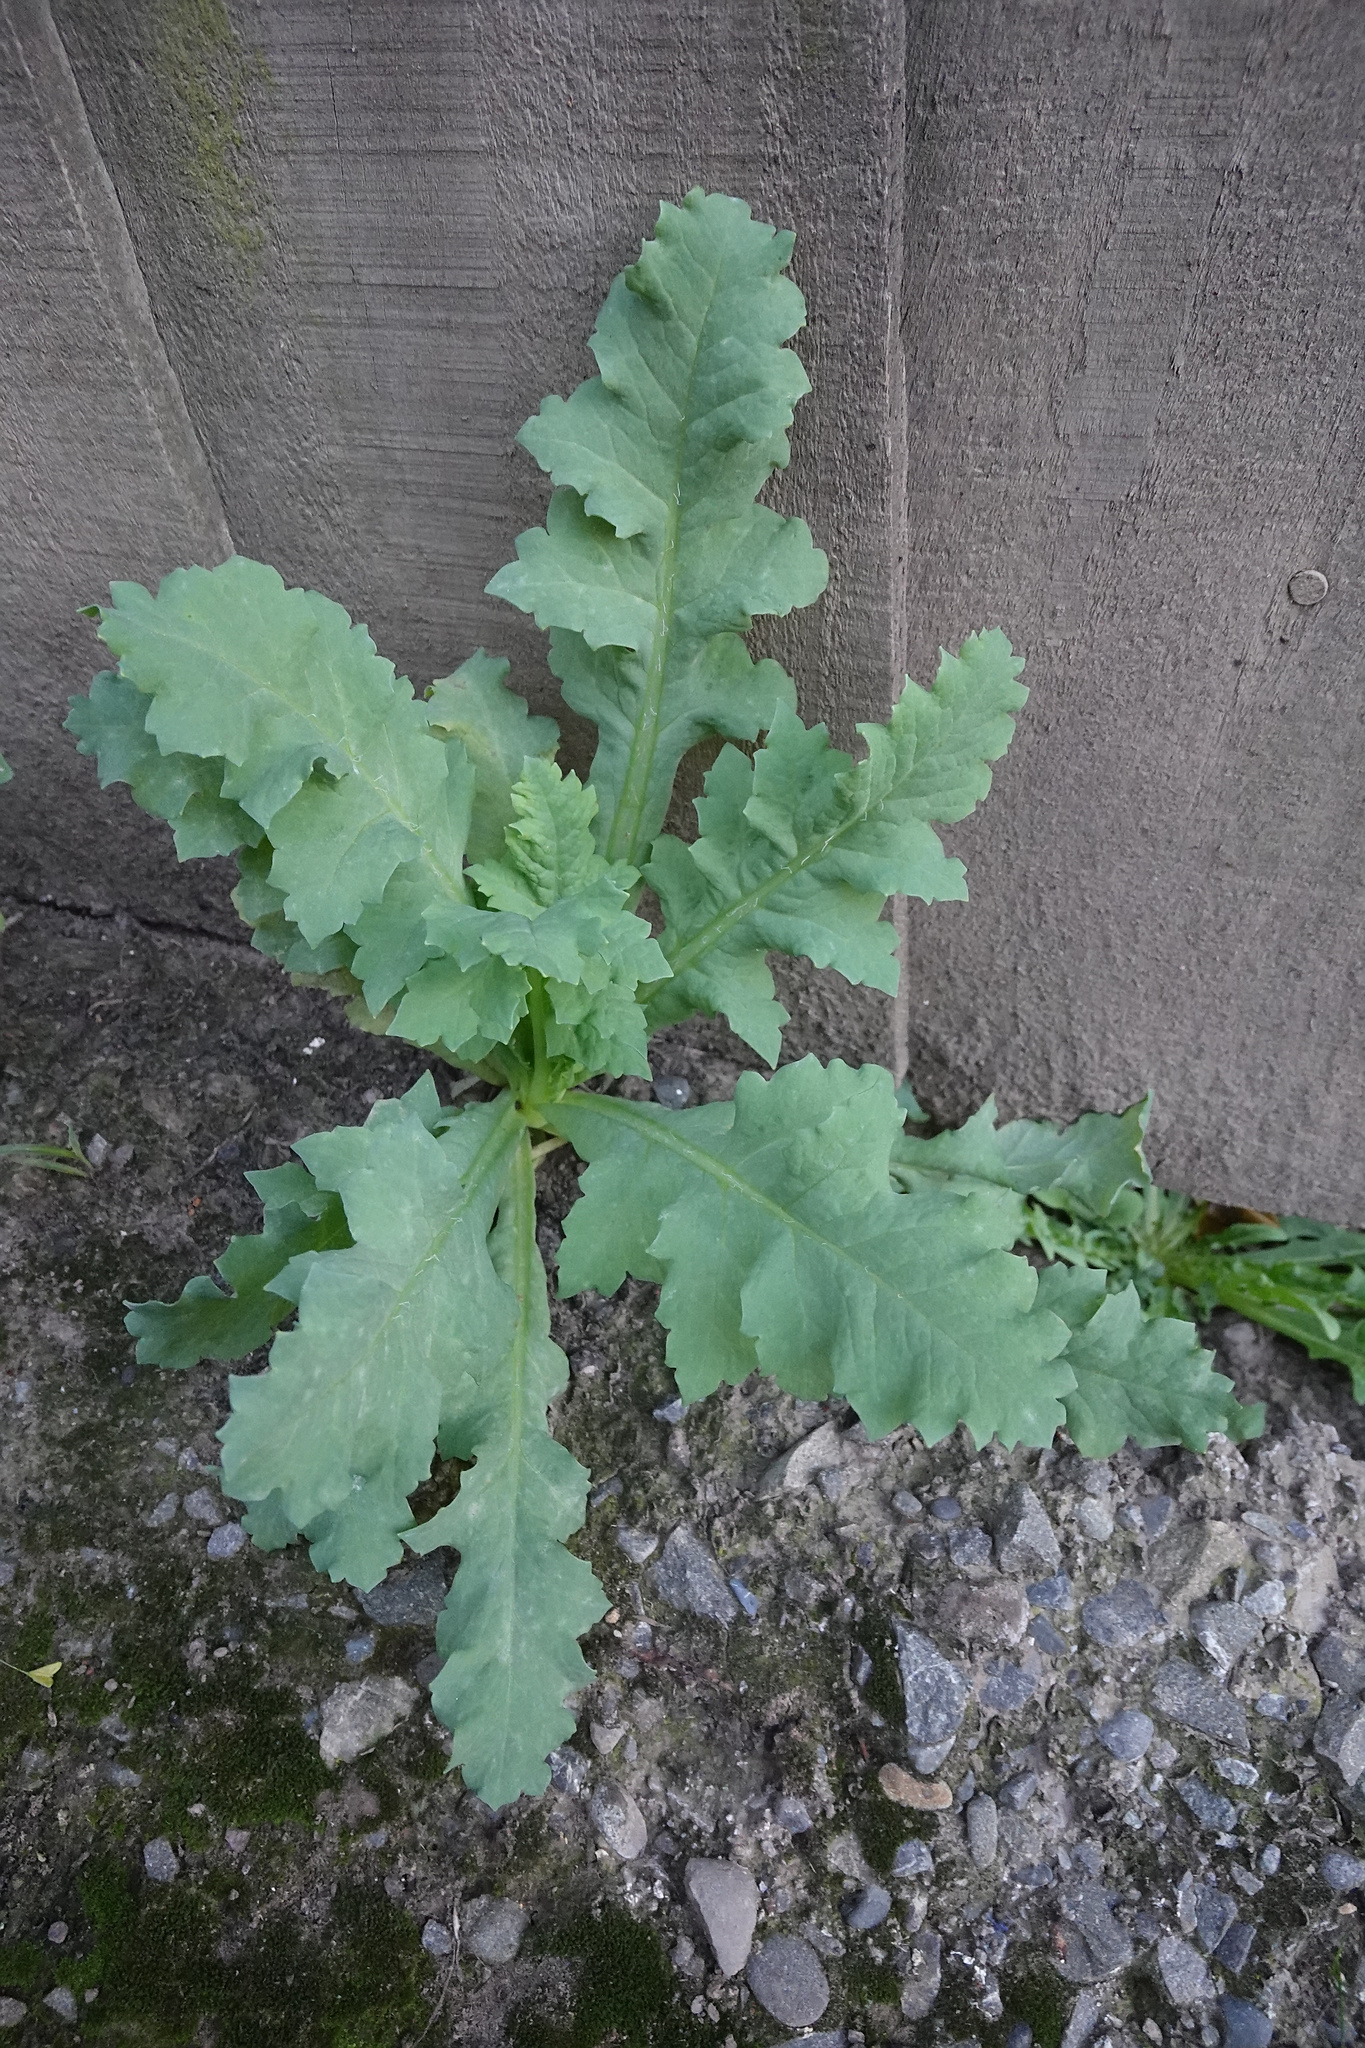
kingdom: Plantae
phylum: Tracheophyta
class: Magnoliopsida
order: Ranunculales
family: Papaveraceae
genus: Papaver
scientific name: Papaver somniferum
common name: Opium poppy
